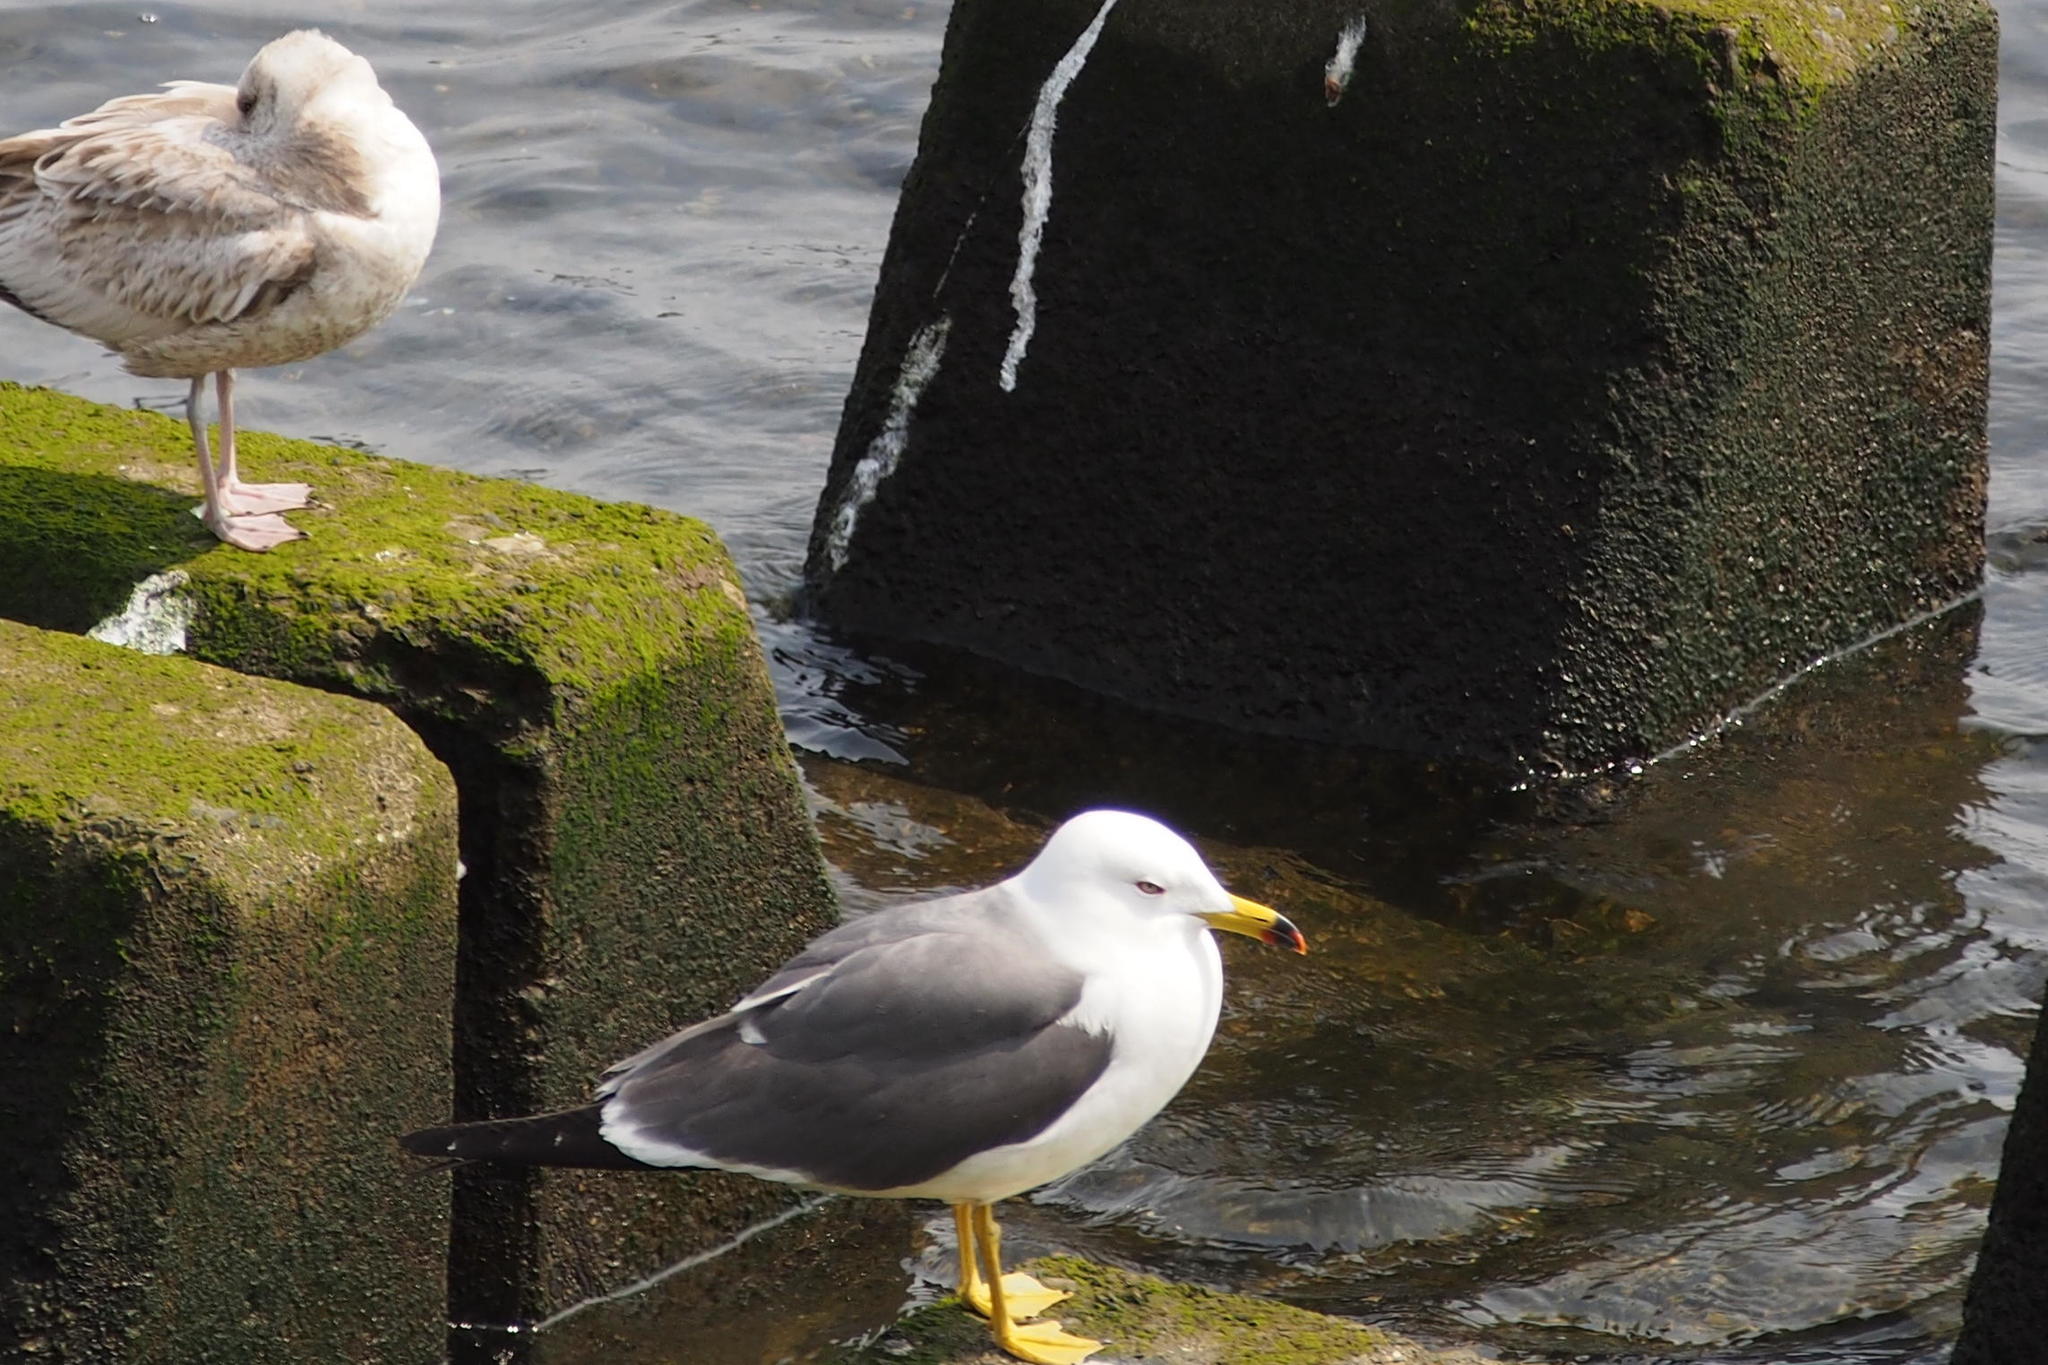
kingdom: Animalia
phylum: Chordata
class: Aves
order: Charadriiformes
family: Laridae
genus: Larus
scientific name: Larus crassirostris
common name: Black-tailed gull
